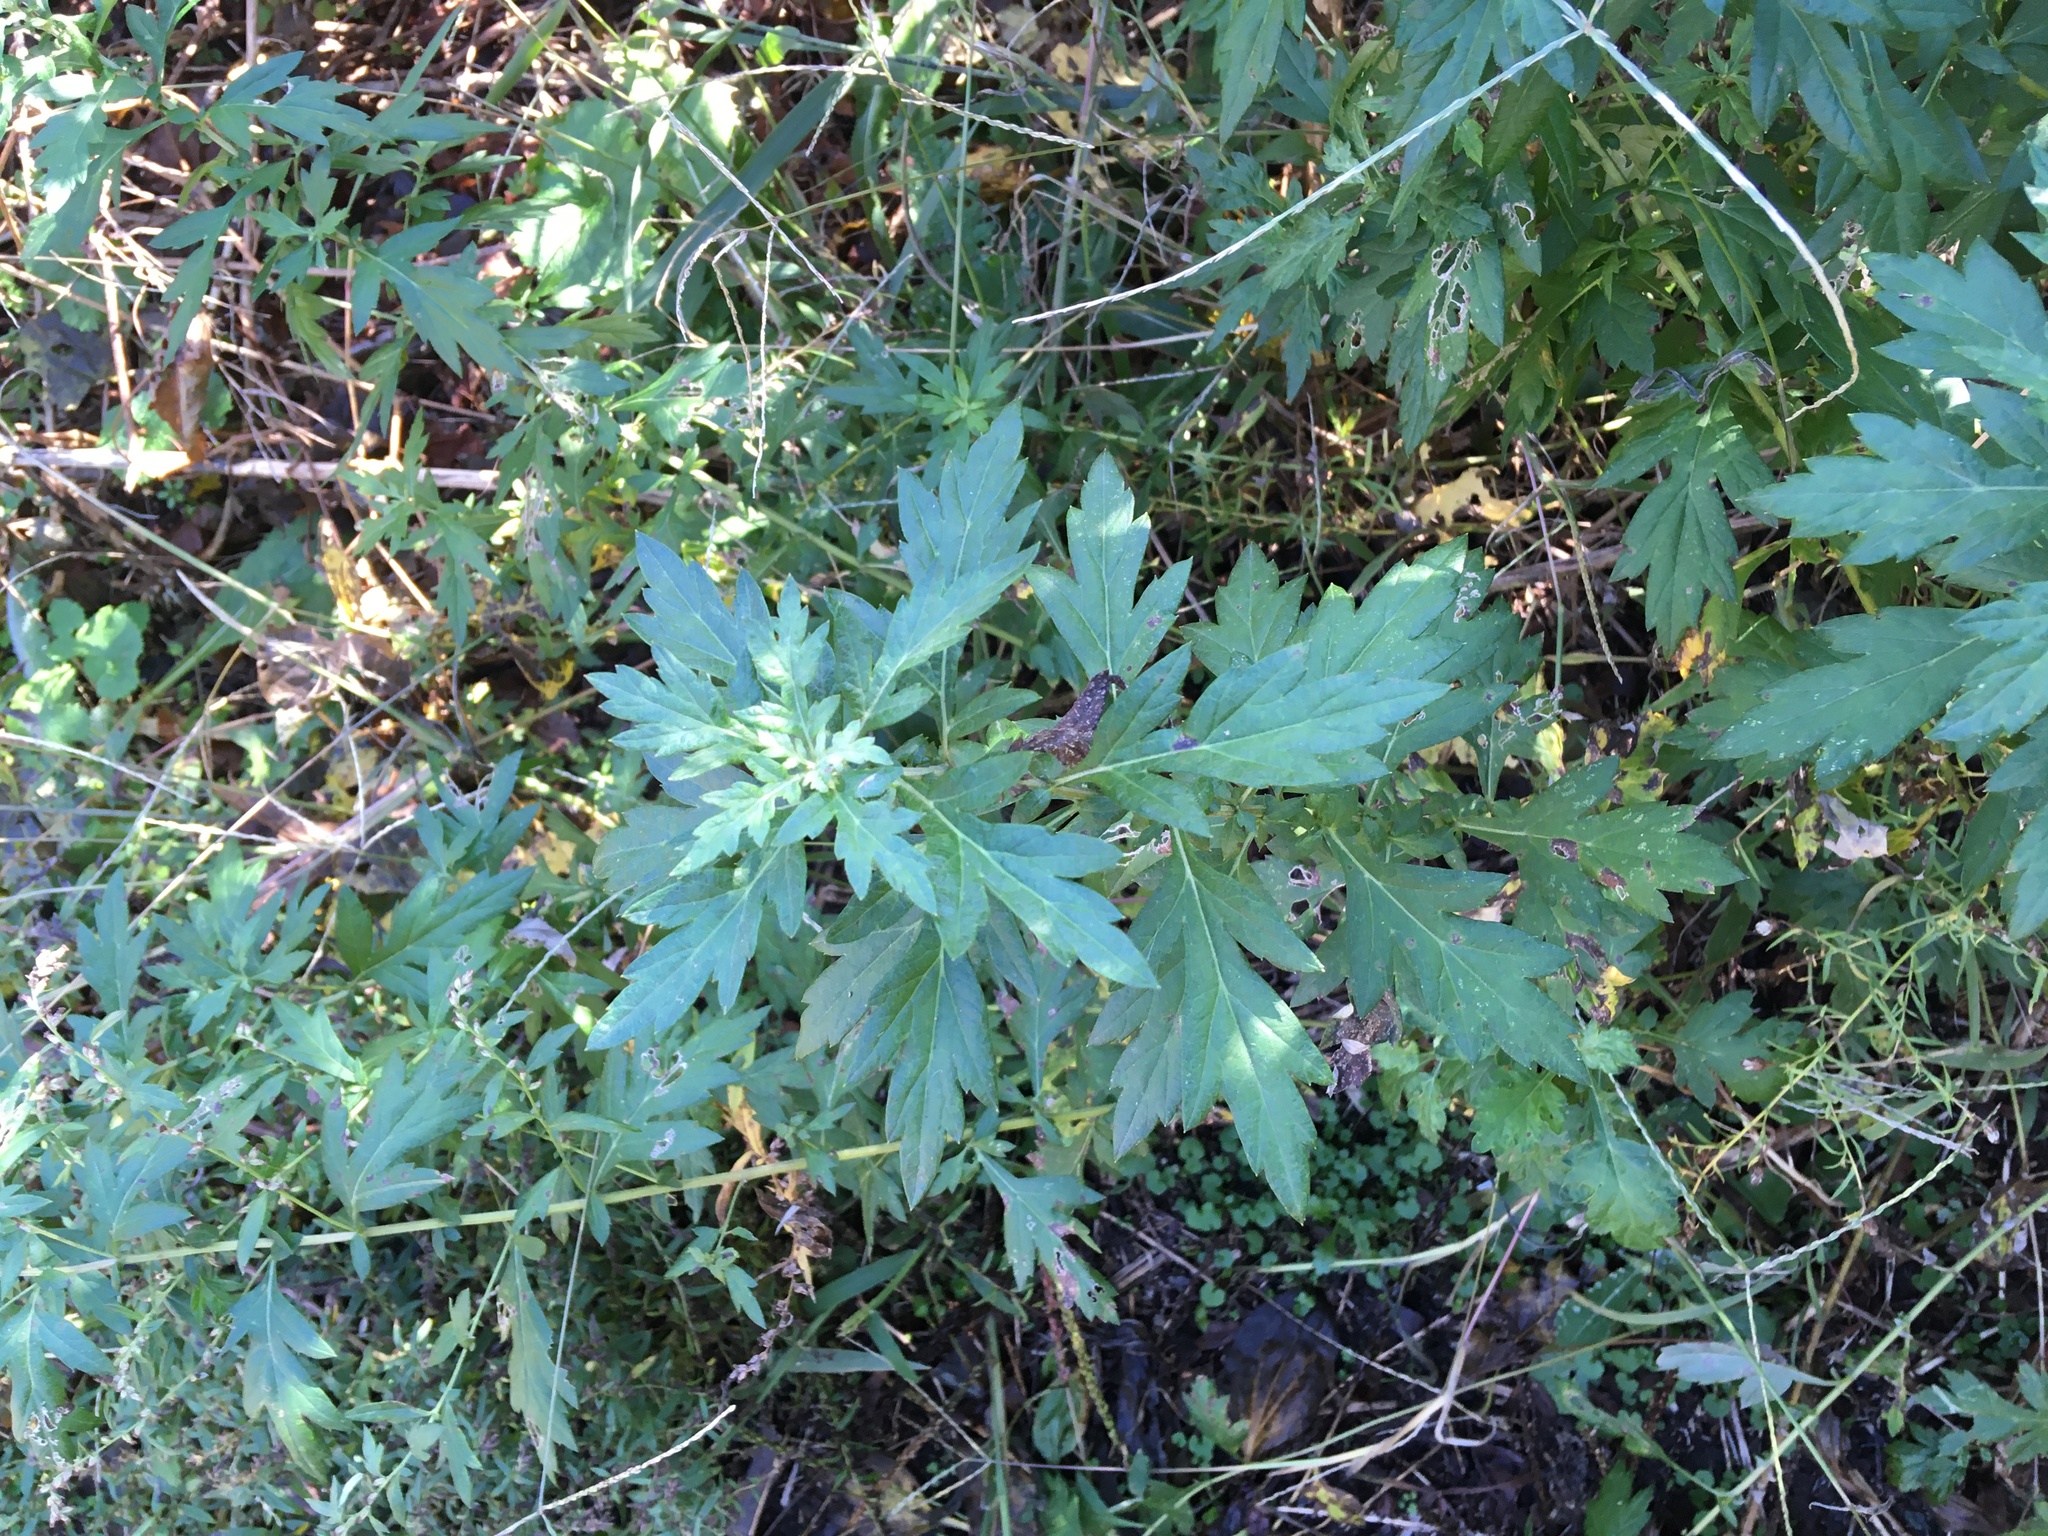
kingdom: Plantae
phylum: Tracheophyta
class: Magnoliopsida
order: Asterales
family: Asteraceae
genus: Artemisia
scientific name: Artemisia vulgaris
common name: Mugwort
